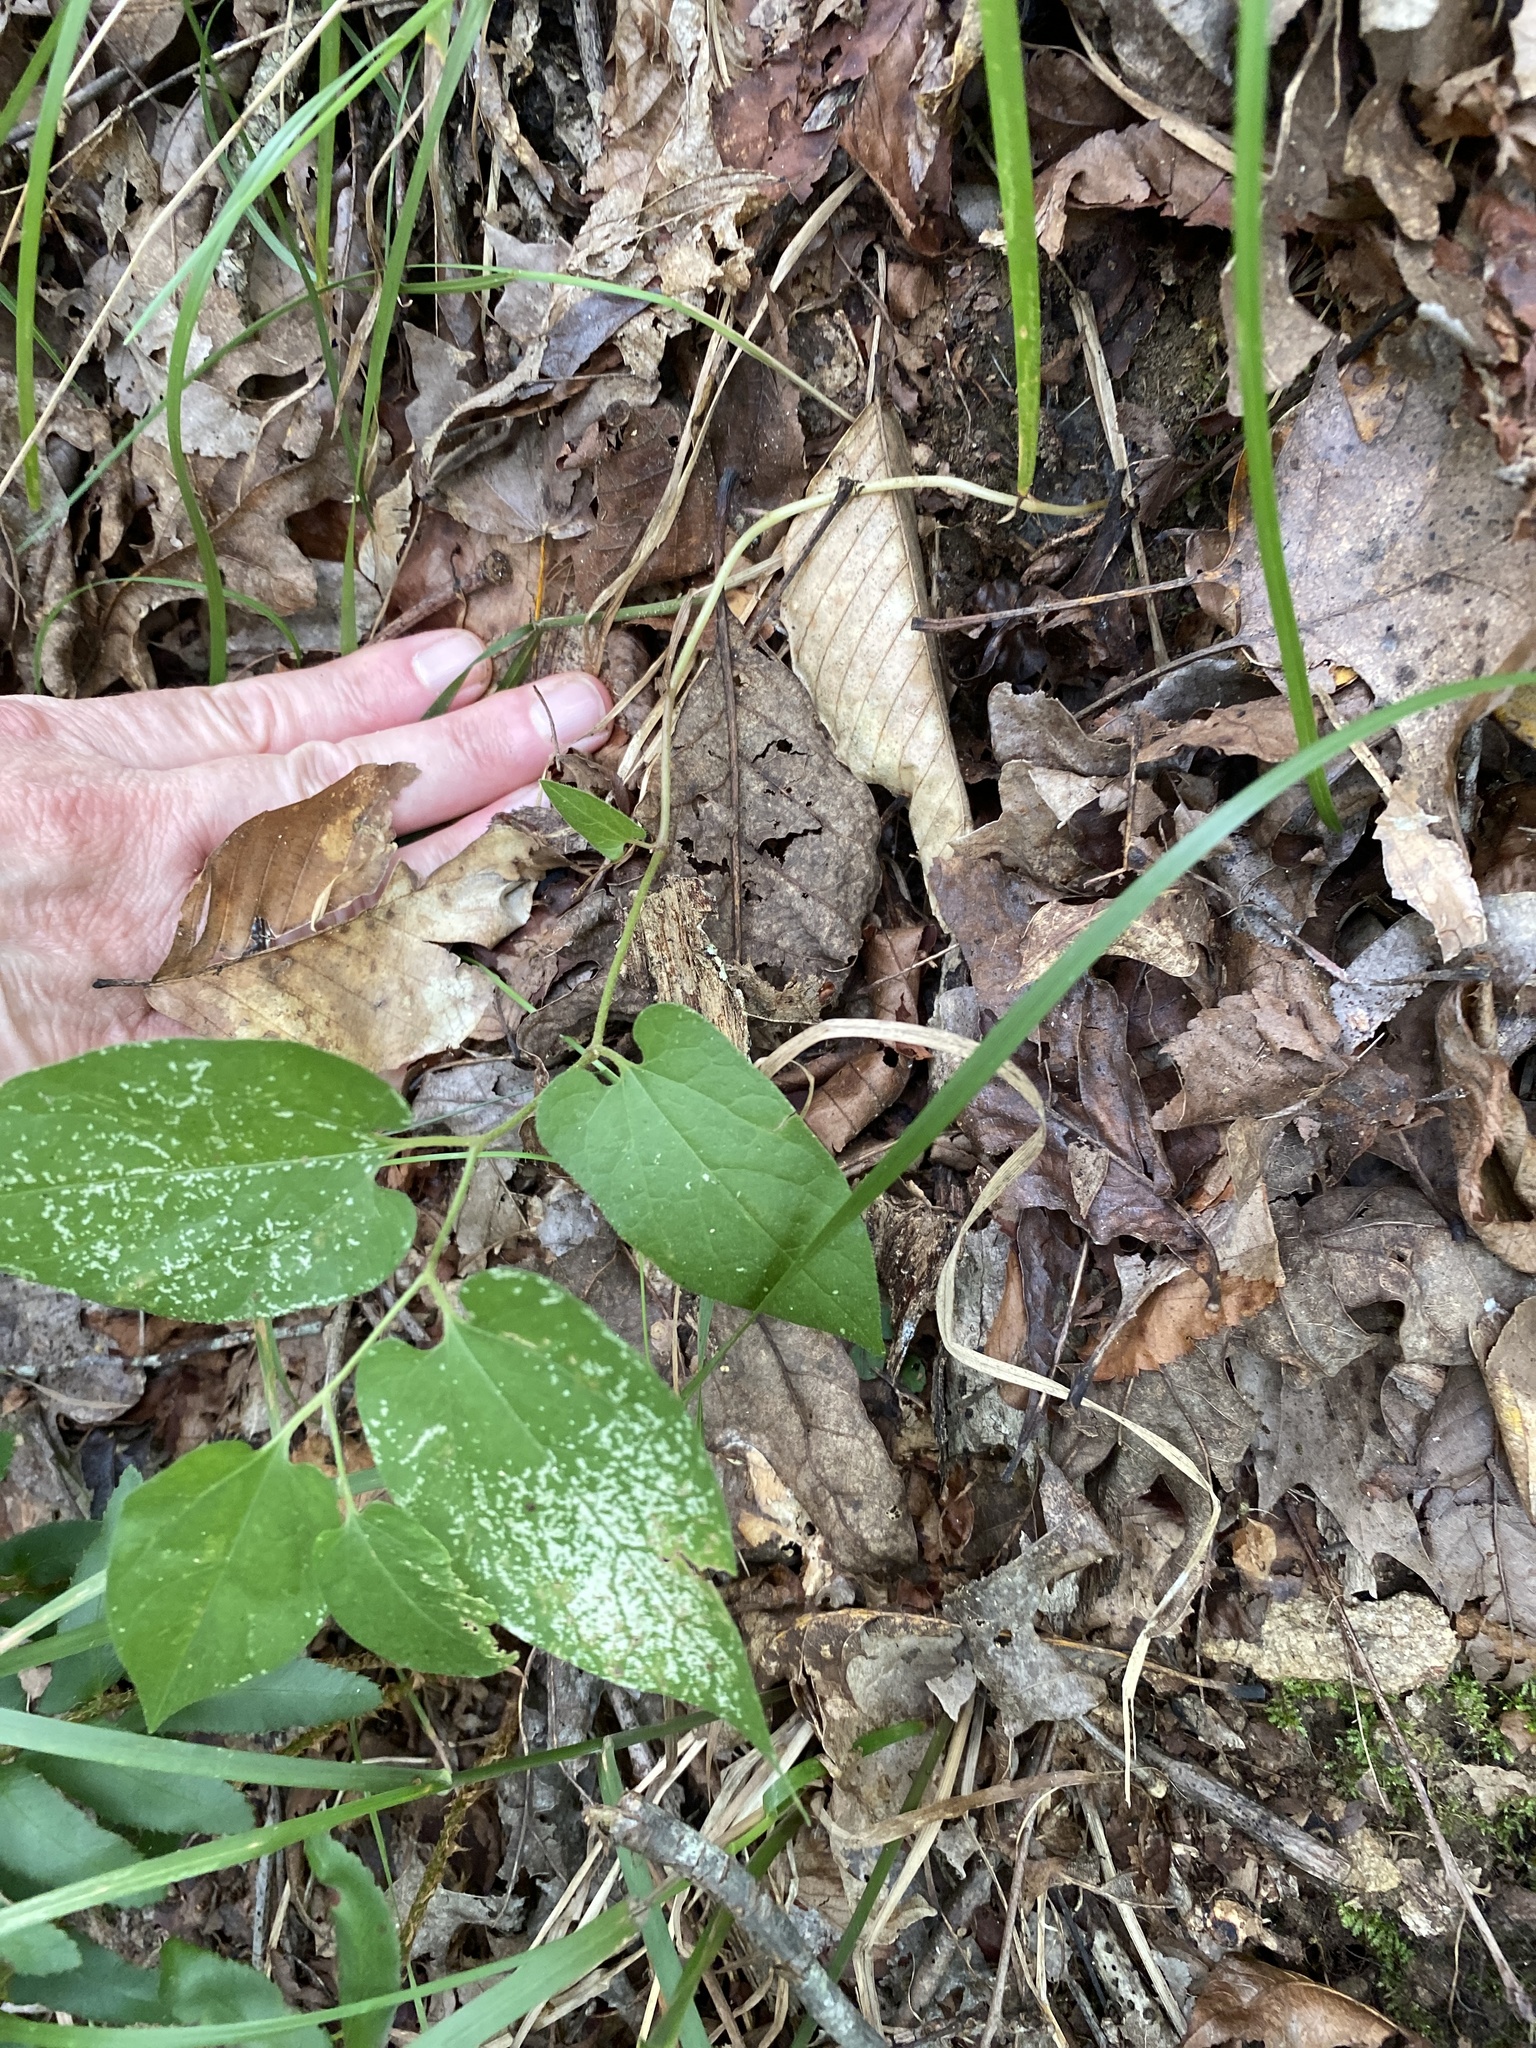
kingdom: Plantae
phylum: Tracheophyta
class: Magnoliopsida
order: Piperales
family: Aristolochiaceae
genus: Endodeca
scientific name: Endodeca serpentaria
